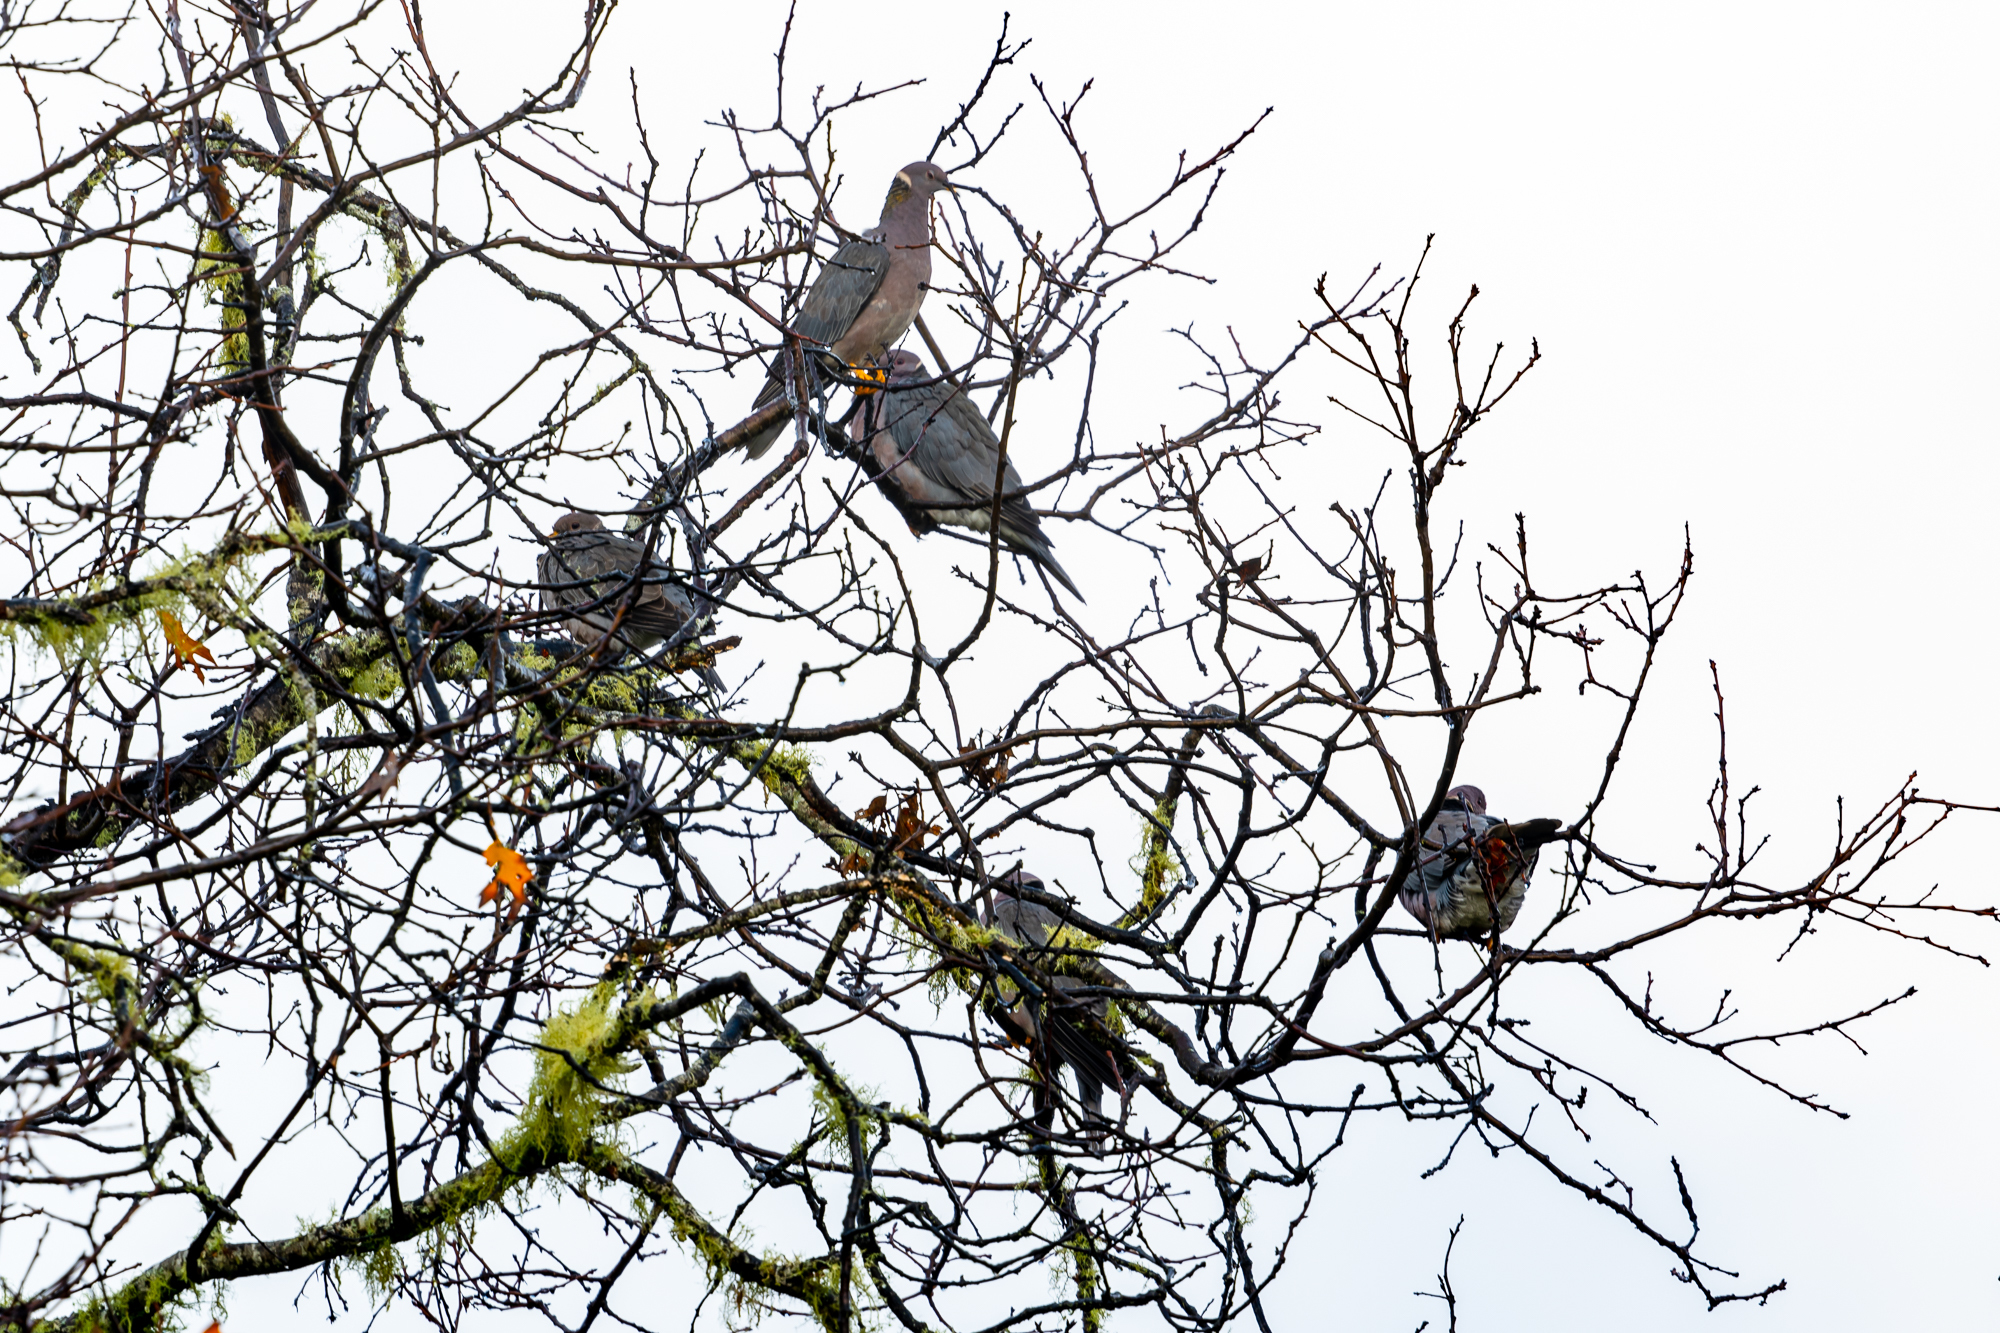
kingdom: Animalia
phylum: Chordata
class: Aves
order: Columbiformes
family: Columbidae
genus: Patagioenas
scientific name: Patagioenas fasciata
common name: Band-tailed pigeon
